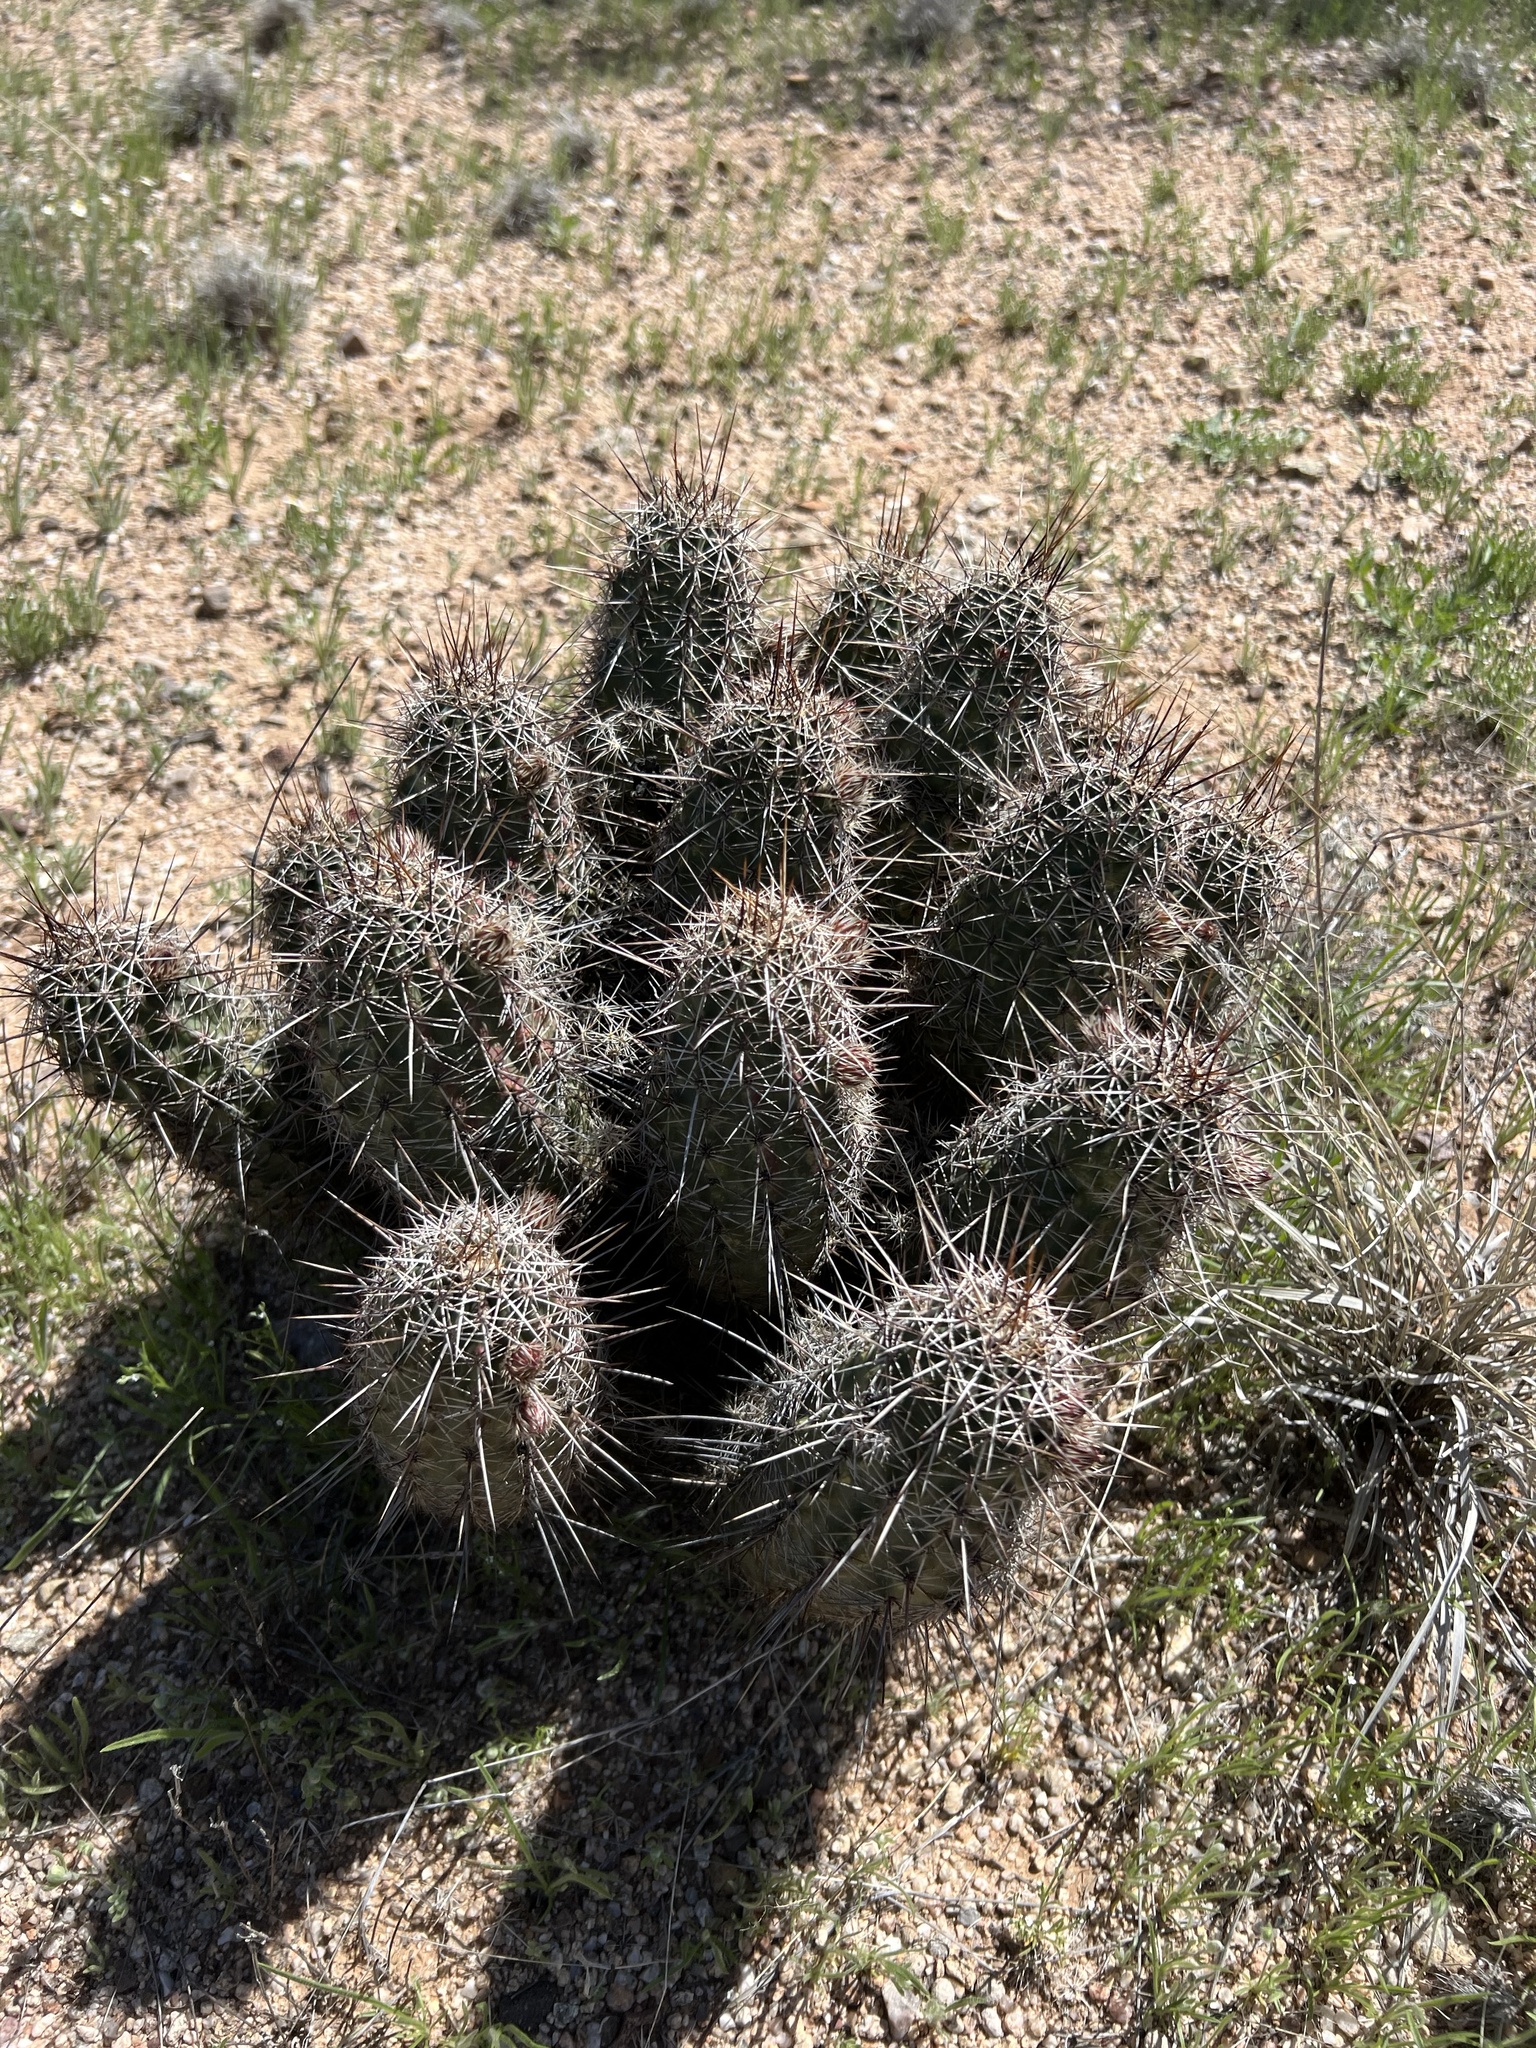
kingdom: Plantae
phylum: Tracheophyta
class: Magnoliopsida
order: Caryophyllales
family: Cactaceae
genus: Echinocereus
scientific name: Echinocereus fasciculatus
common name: Bundle hedgehog
